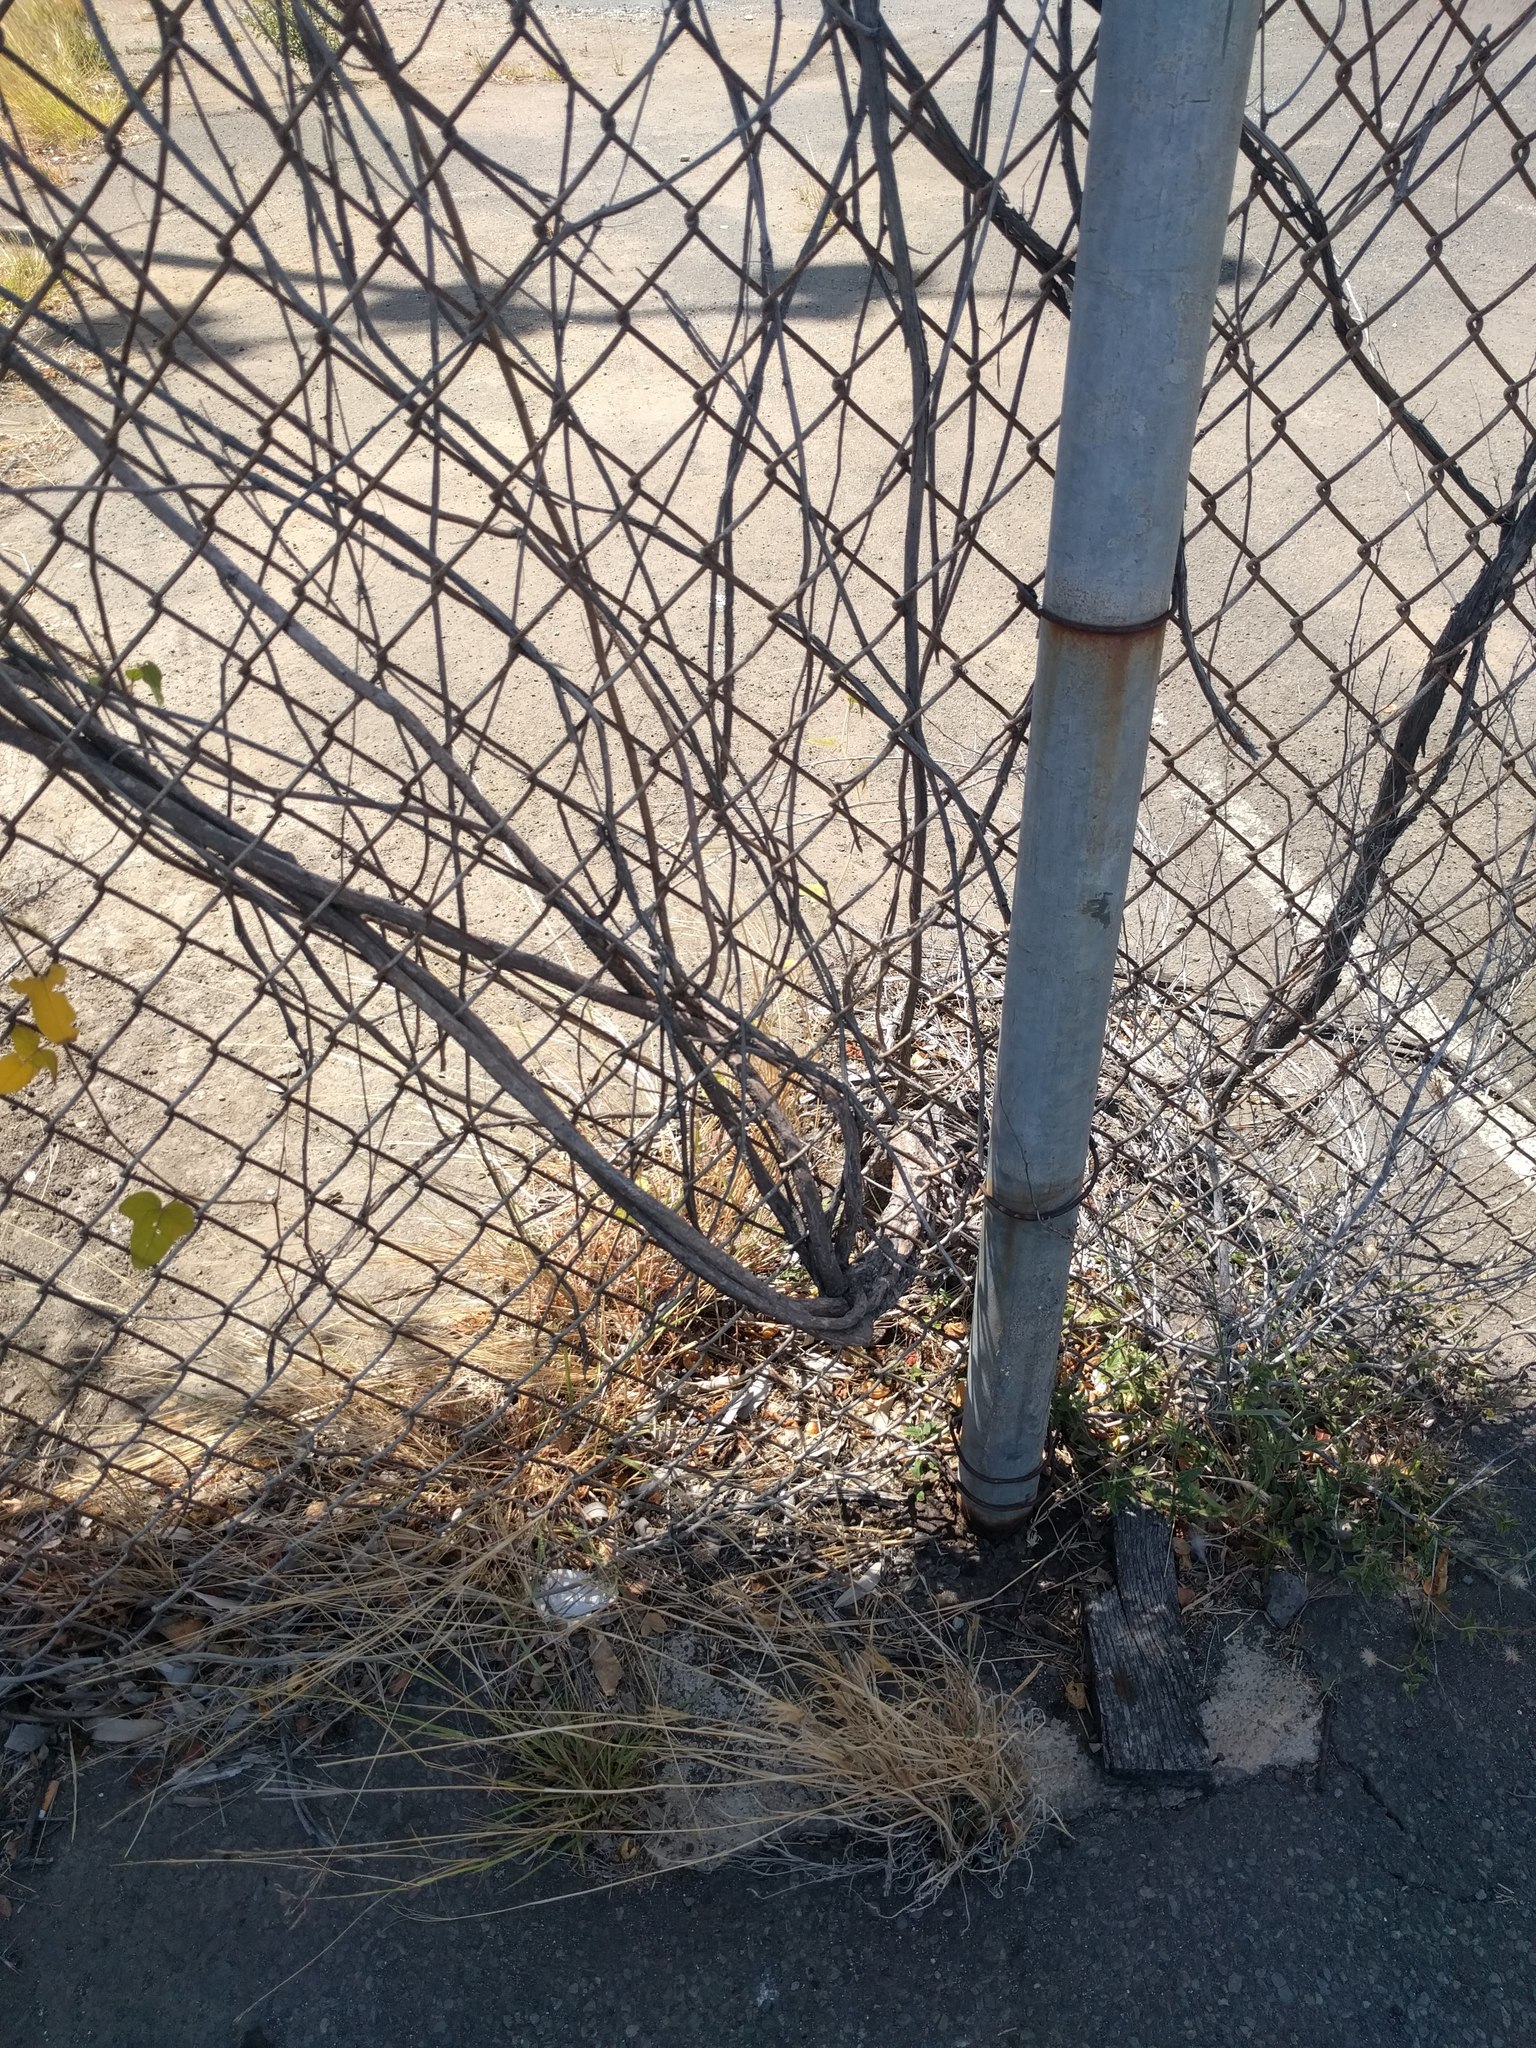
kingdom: Plantae
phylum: Tracheophyta
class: Magnoliopsida
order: Gentianales
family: Rubiaceae
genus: Saprosma
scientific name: Saprosma
